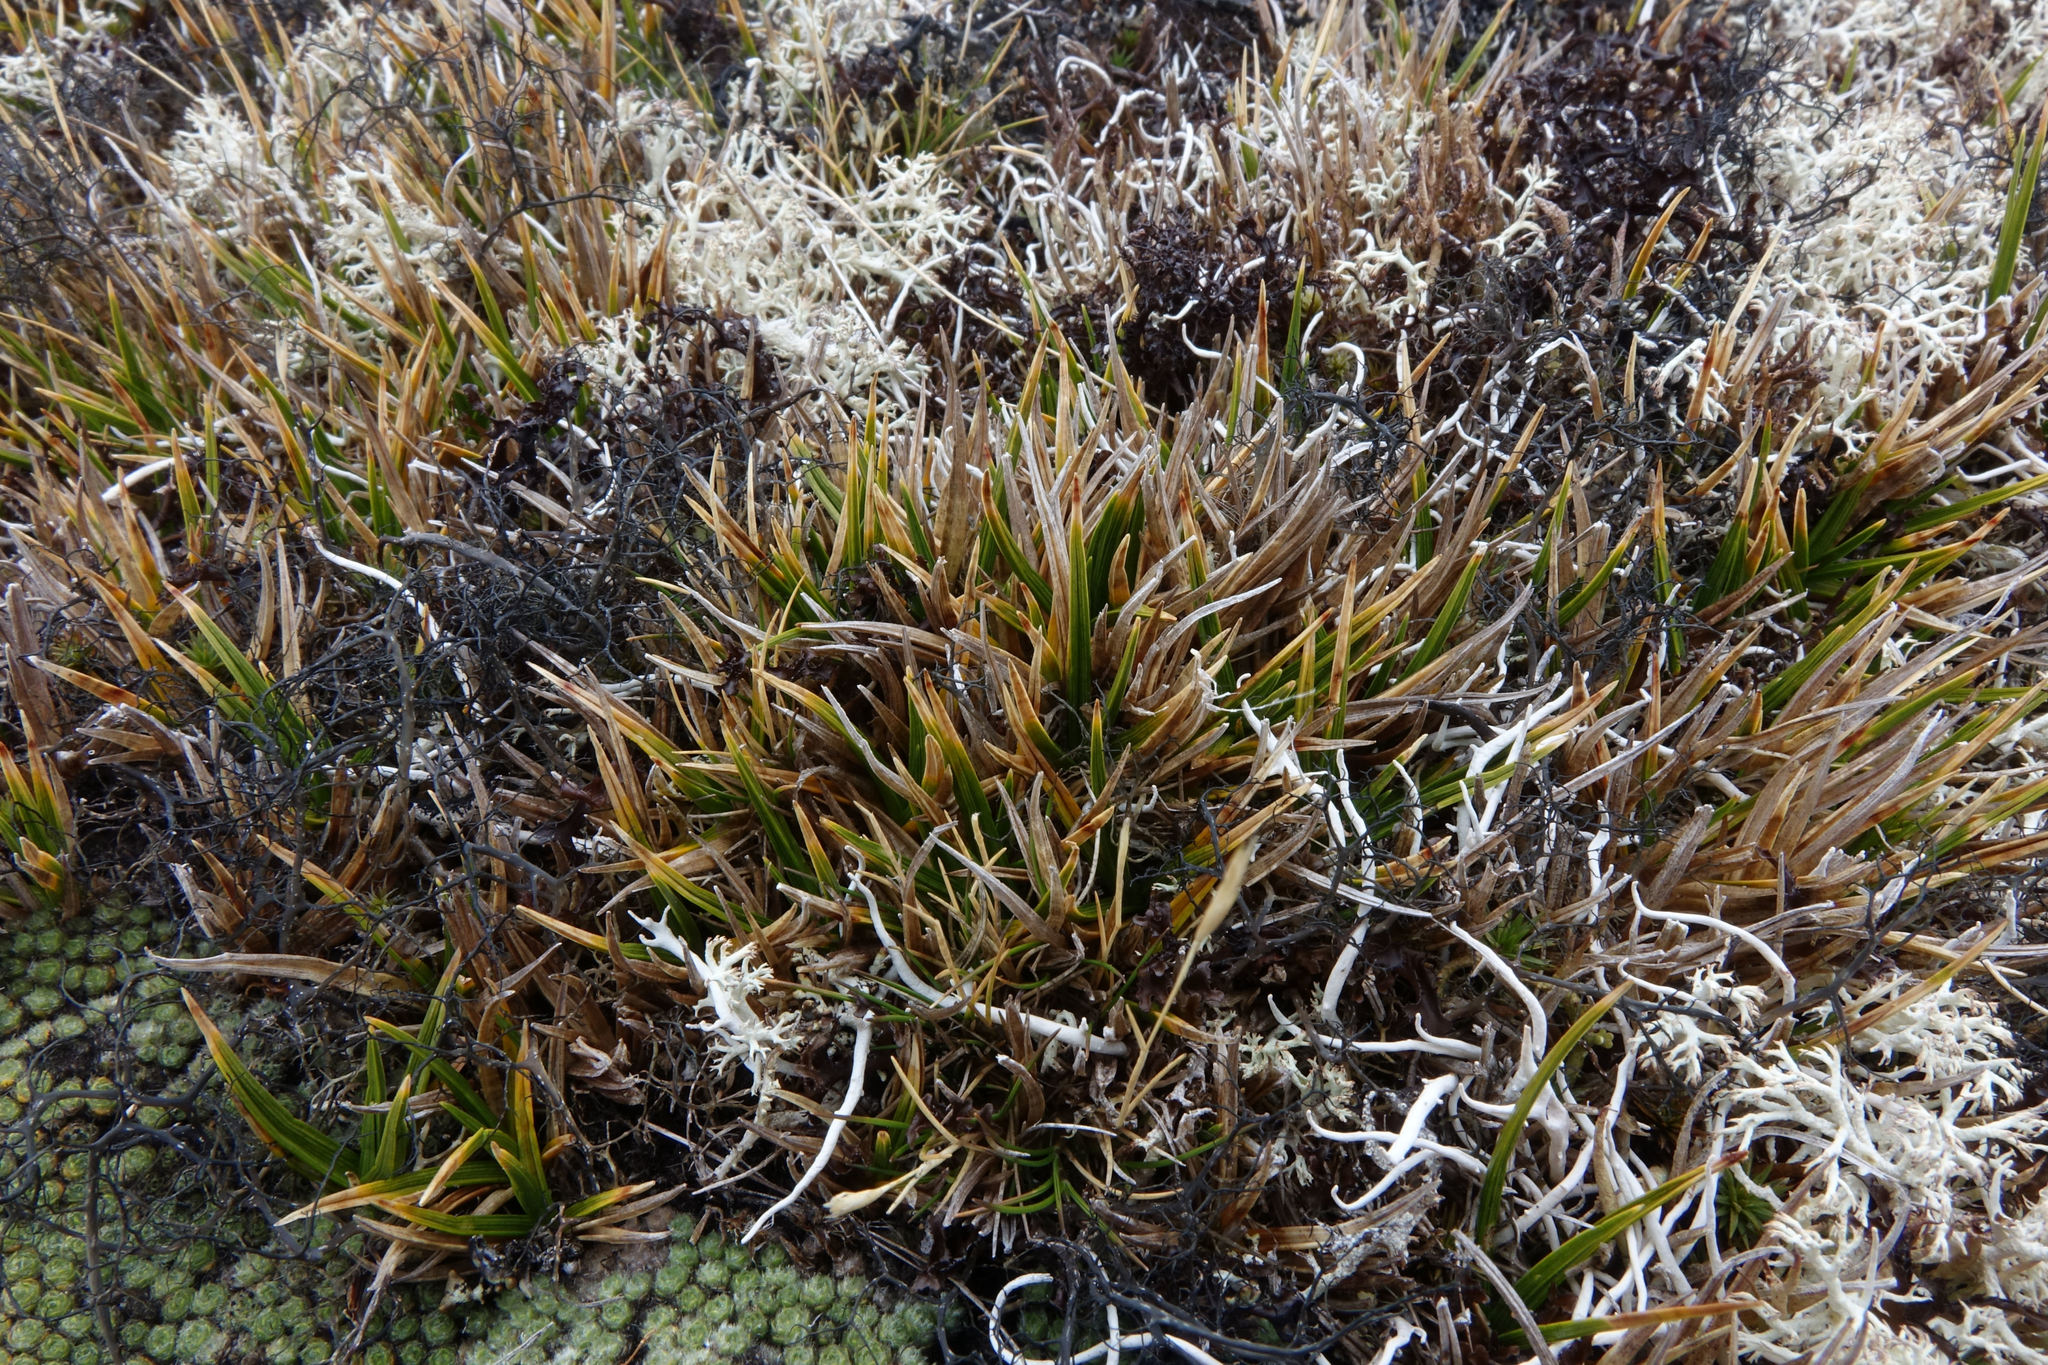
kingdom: Plantae
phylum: Tracheophyta
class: Liliopsida
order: Poales
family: Cyperaceae
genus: Carex
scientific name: Carex pterocarpa
